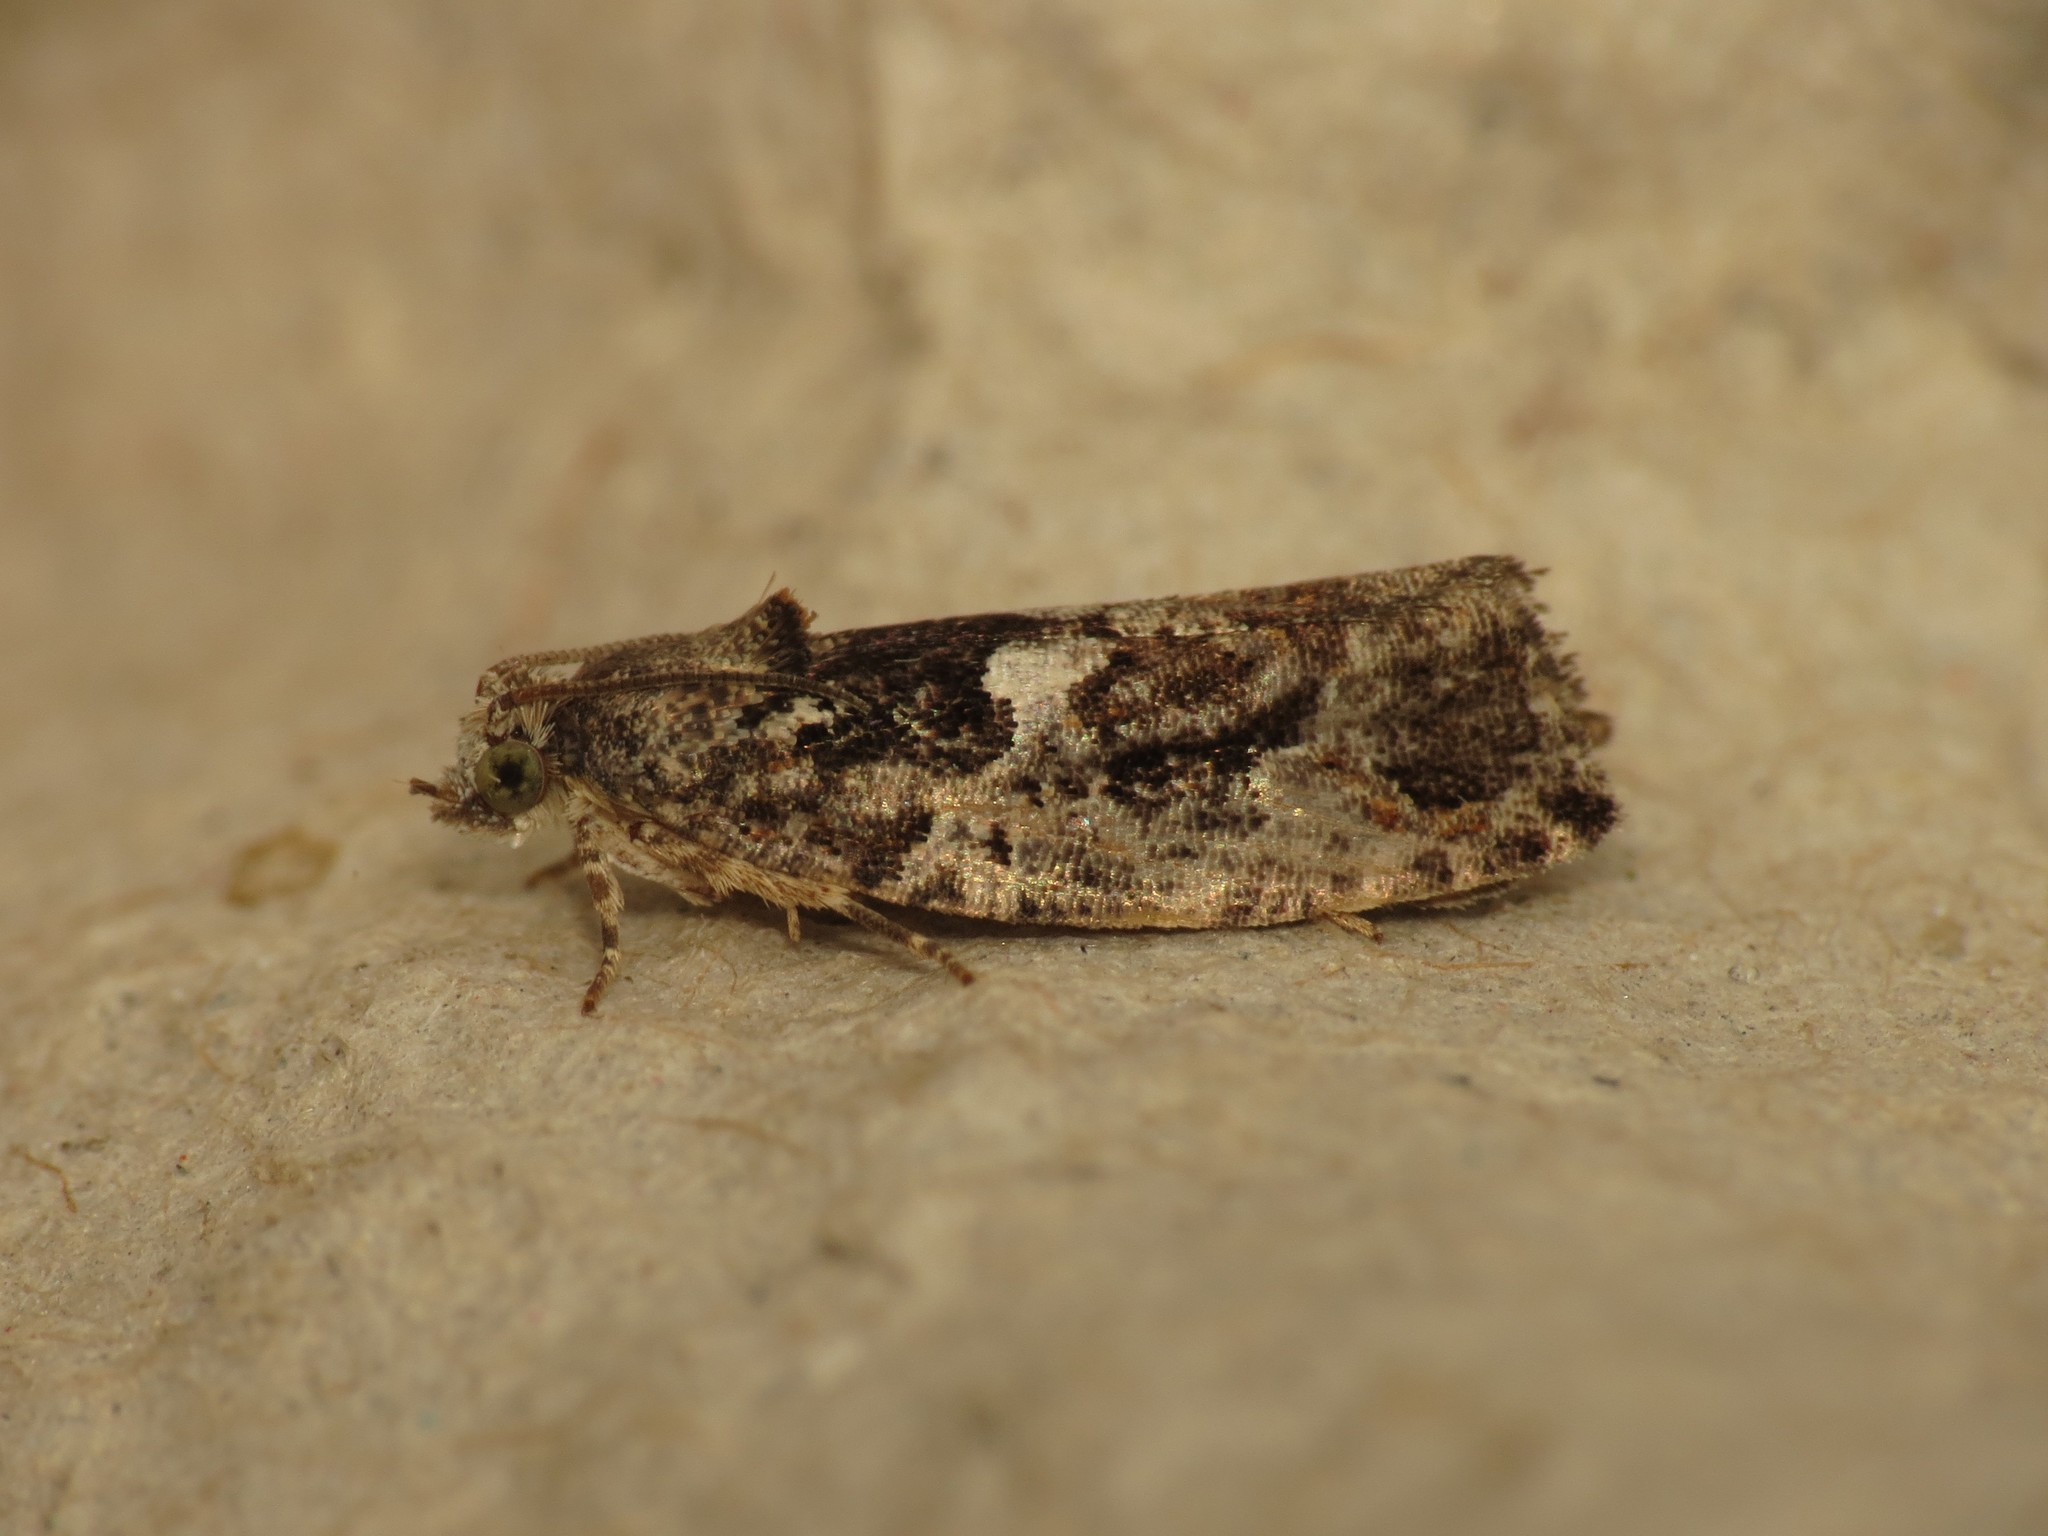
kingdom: Animalia
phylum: Arthropoda
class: Insecta
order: Lepidoptera
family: Tortricidae
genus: Eudemis
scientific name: Eudemis profundana
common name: Diamond-back marble
